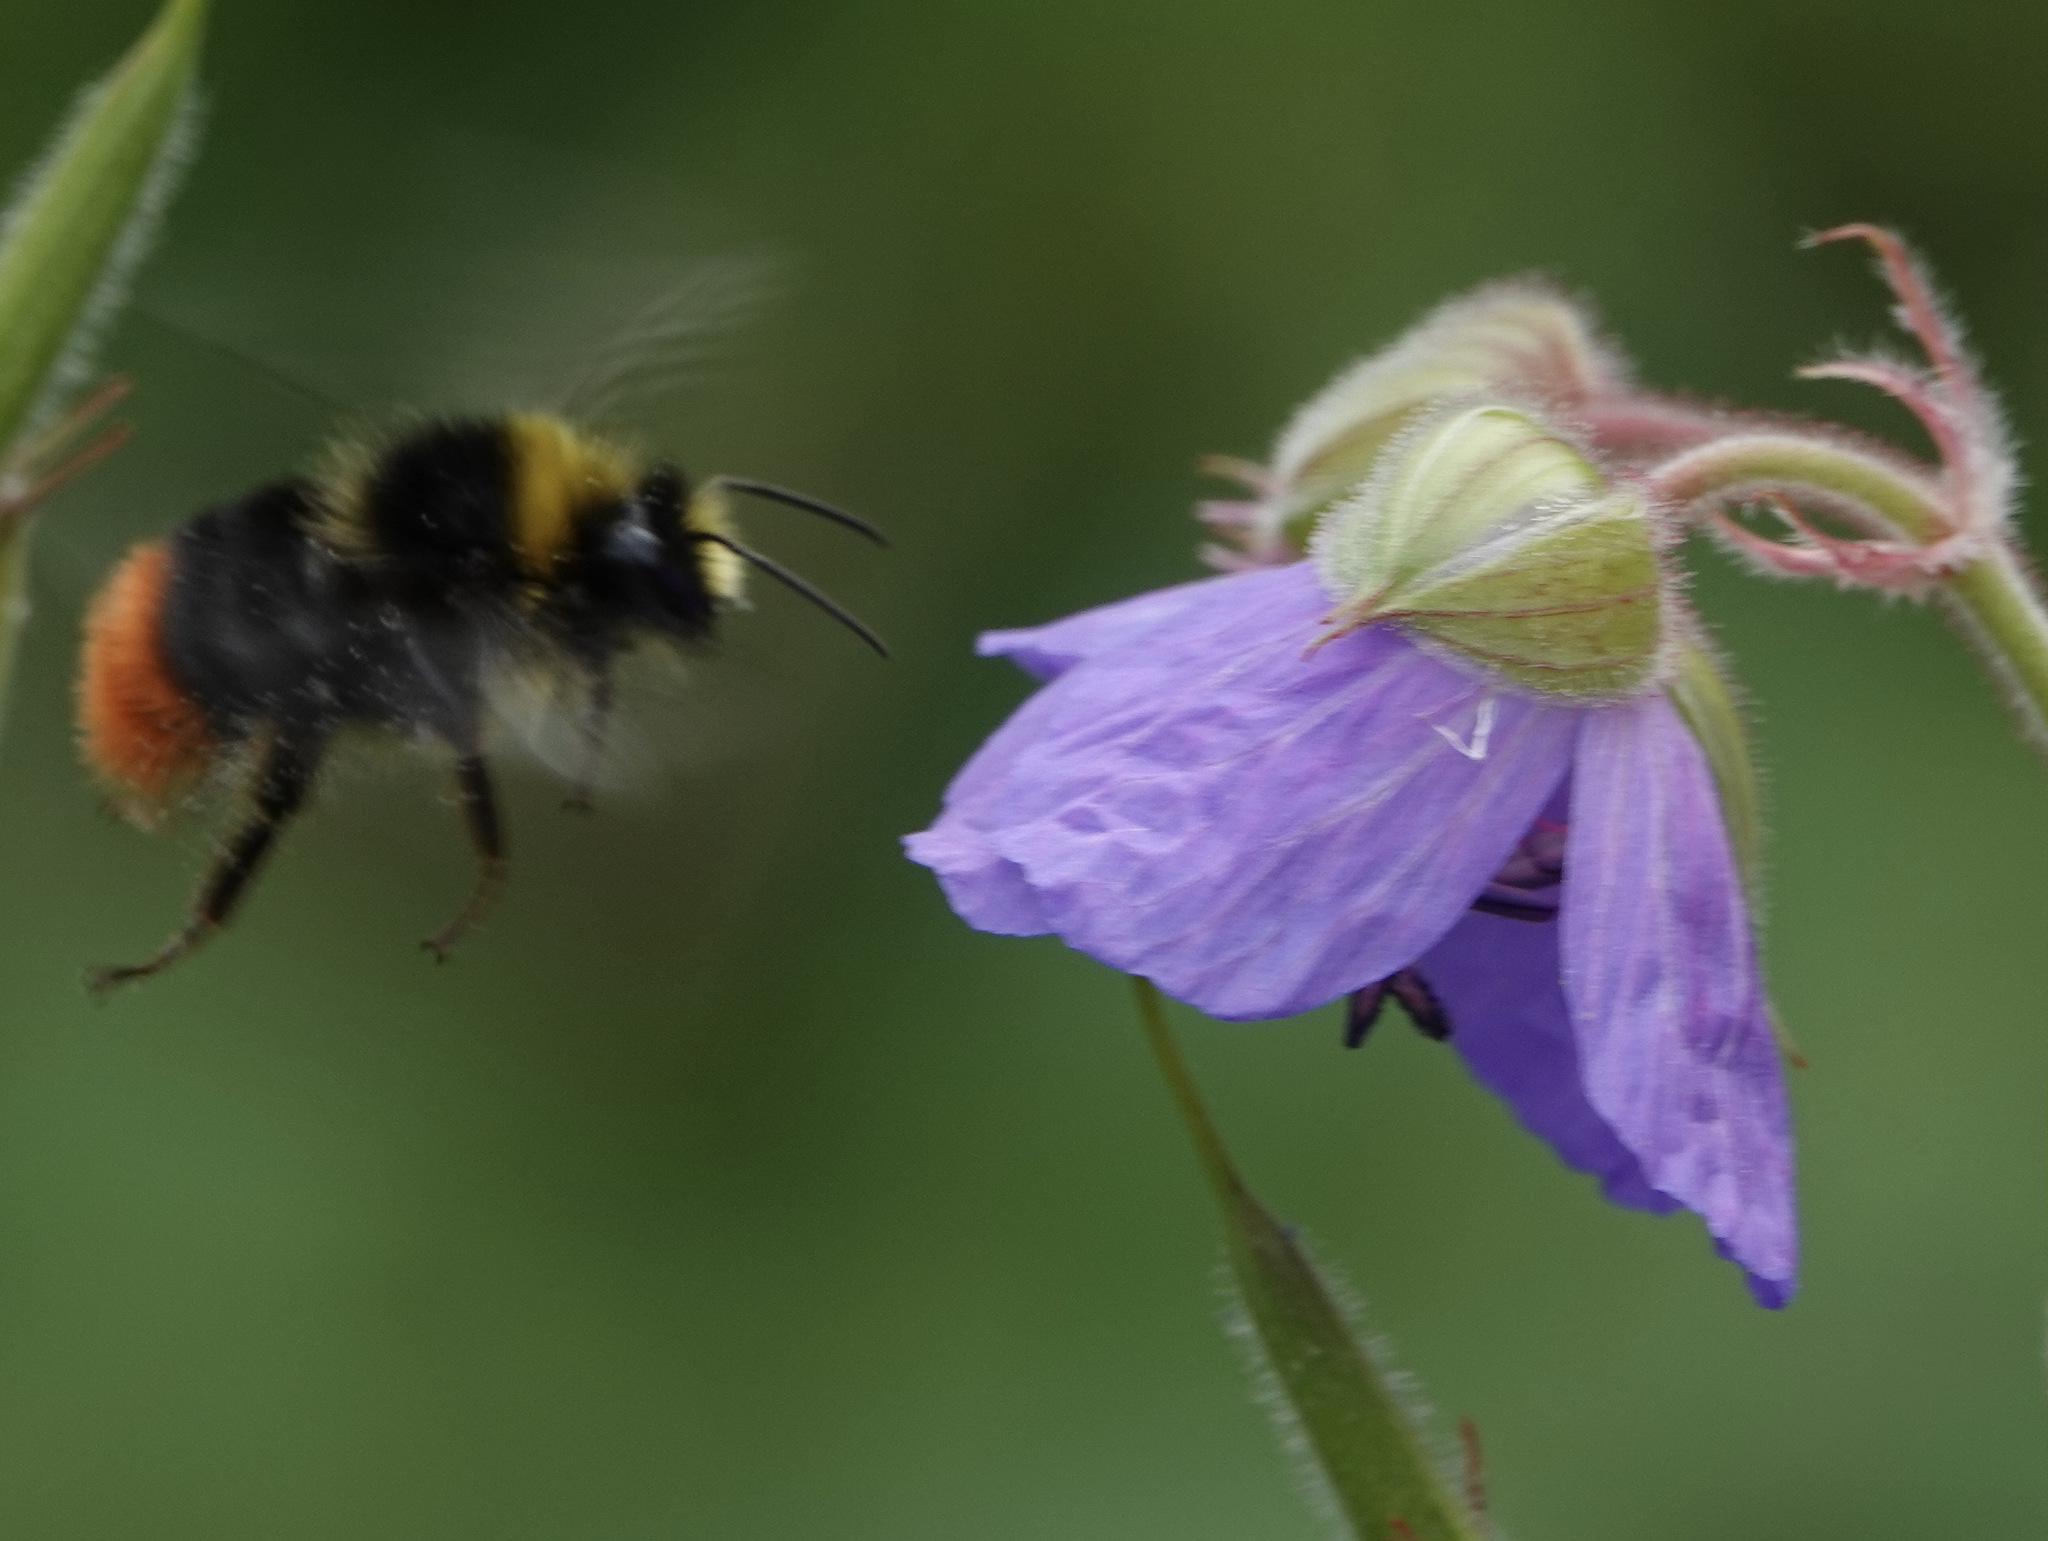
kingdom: Animalia
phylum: Arthropoda
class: Insecta
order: Hymenoptera
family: Apidae
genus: Bombus
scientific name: Bombus lapidarius
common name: Large red-tailed humble-bee
